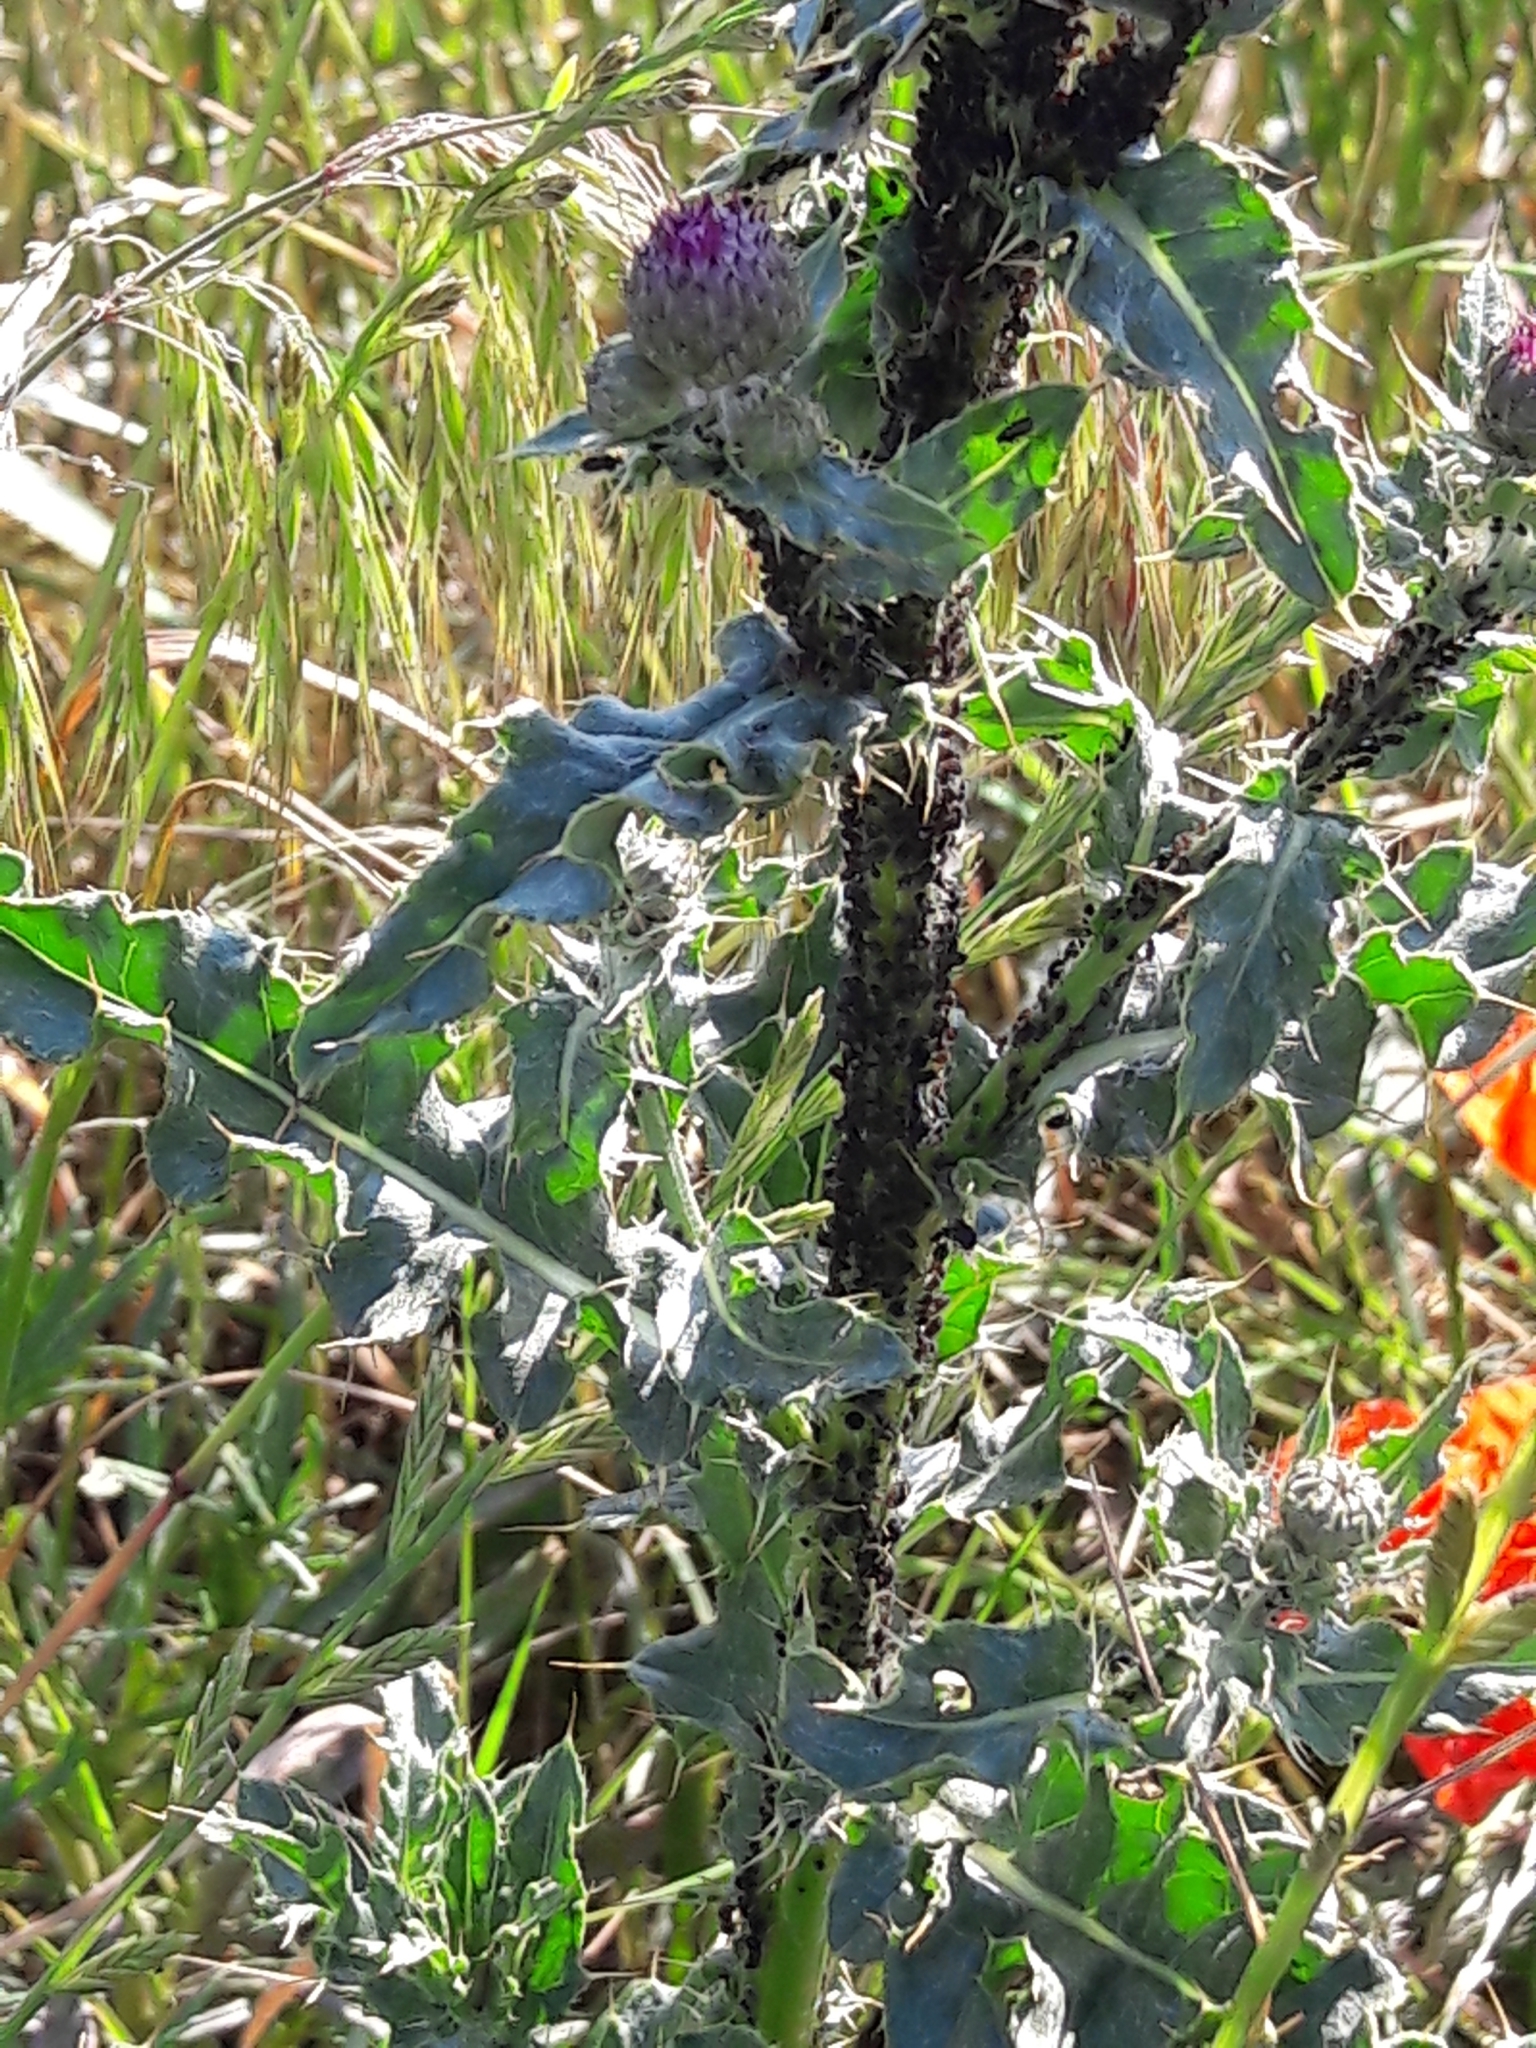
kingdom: Plantae
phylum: Tracheophyta
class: Magnoliopsida
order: Asterales
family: Asteraceae
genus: Cirsium
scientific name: Cirsium arvense
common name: Creeping thistle
